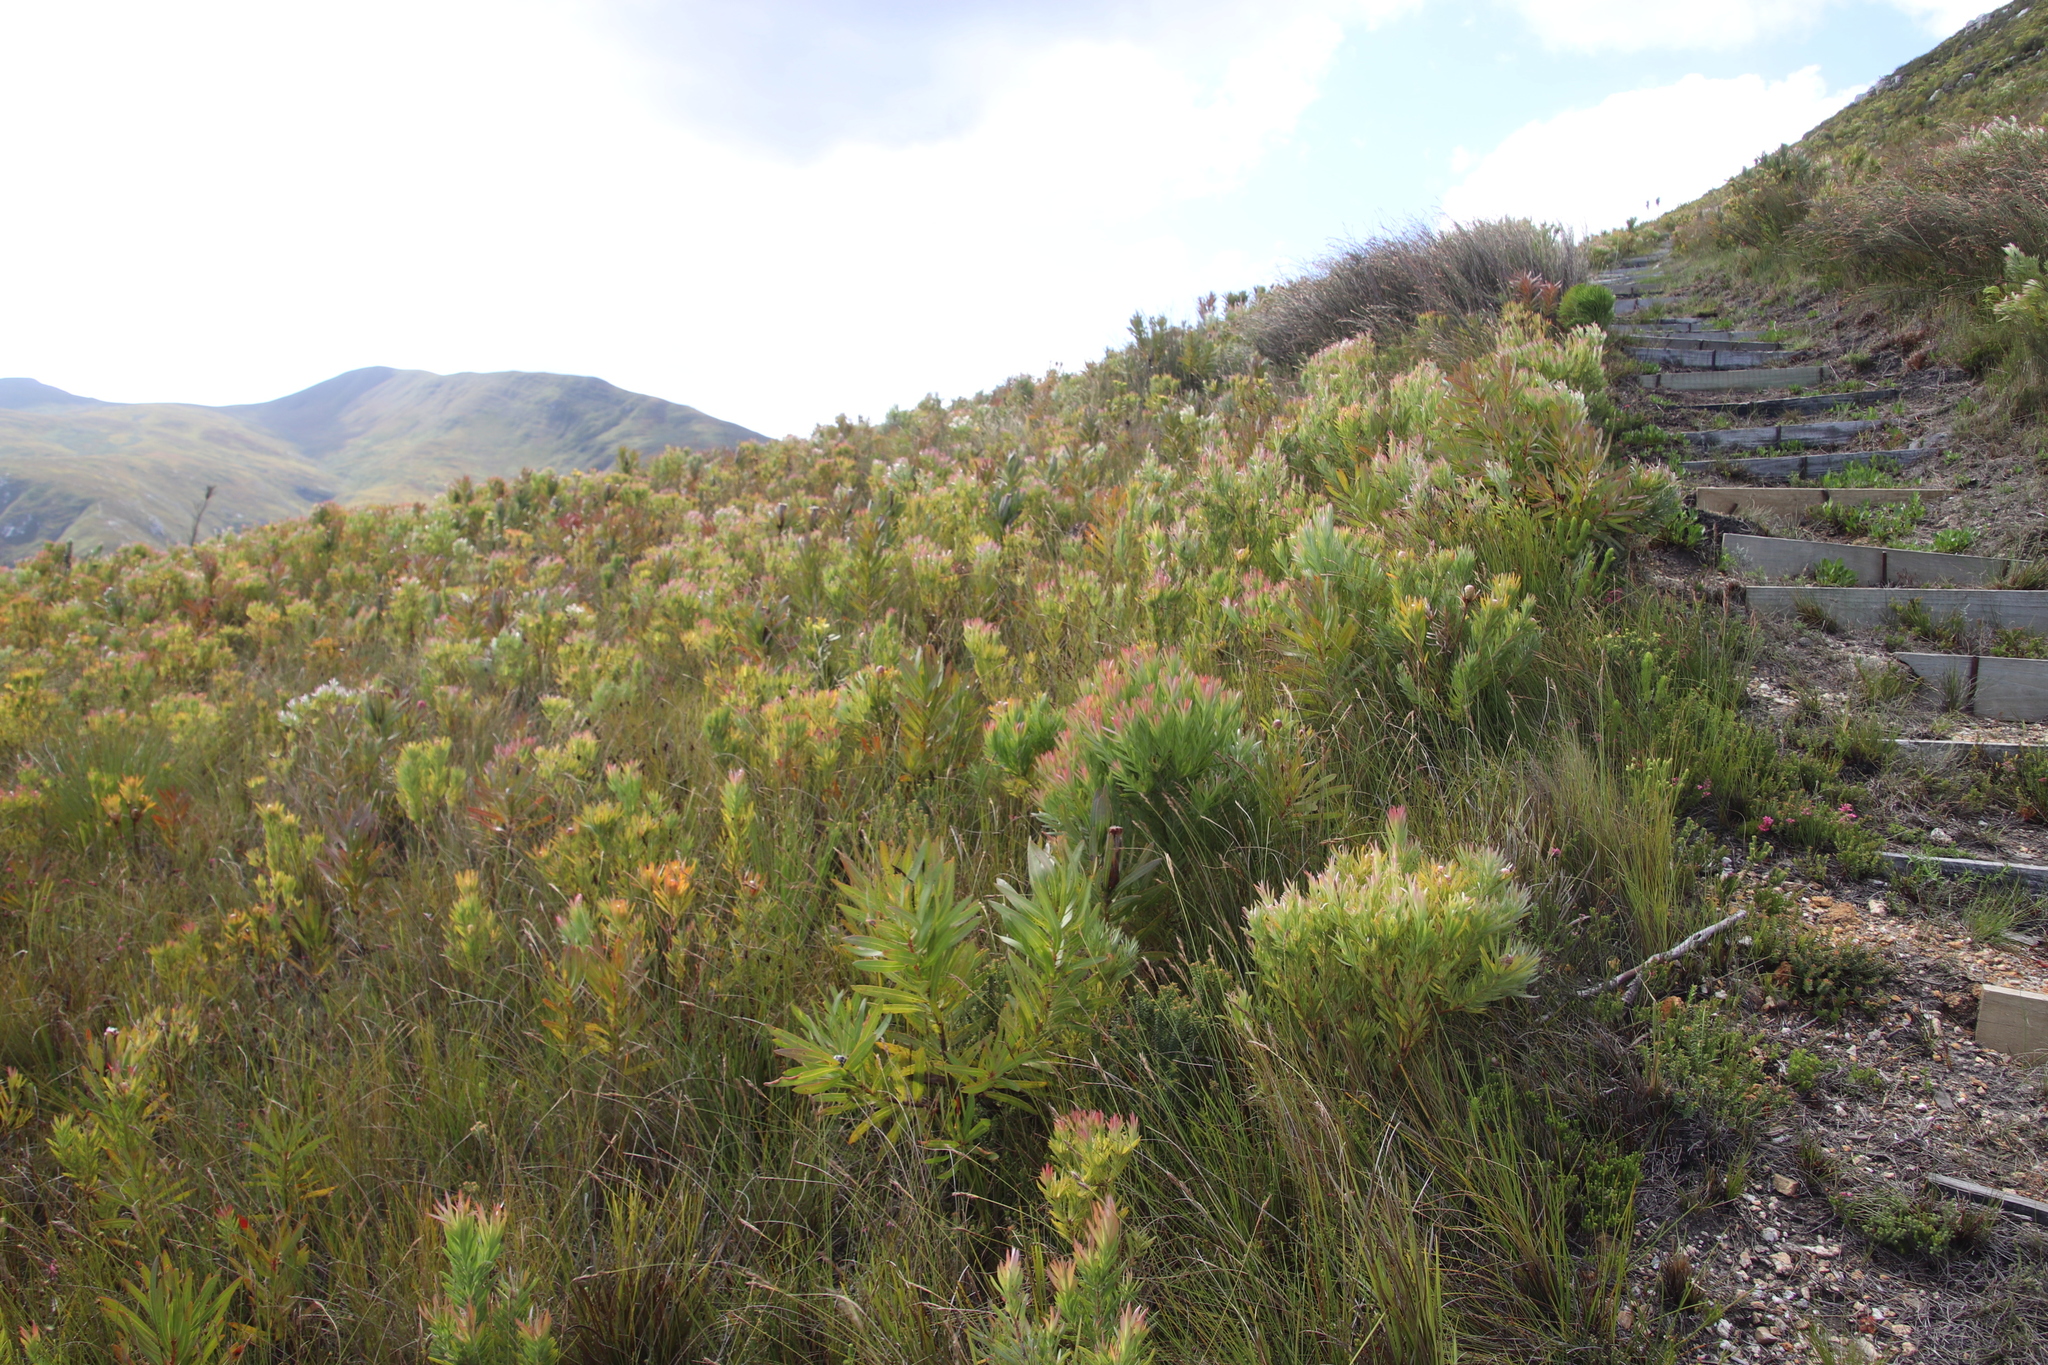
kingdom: Plantae
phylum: Tracheophyta
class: Magnoliopsida
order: Proteales
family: Proteaceae
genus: Protea
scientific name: Protea lepidocarpodendron
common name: Black-bearded protea
